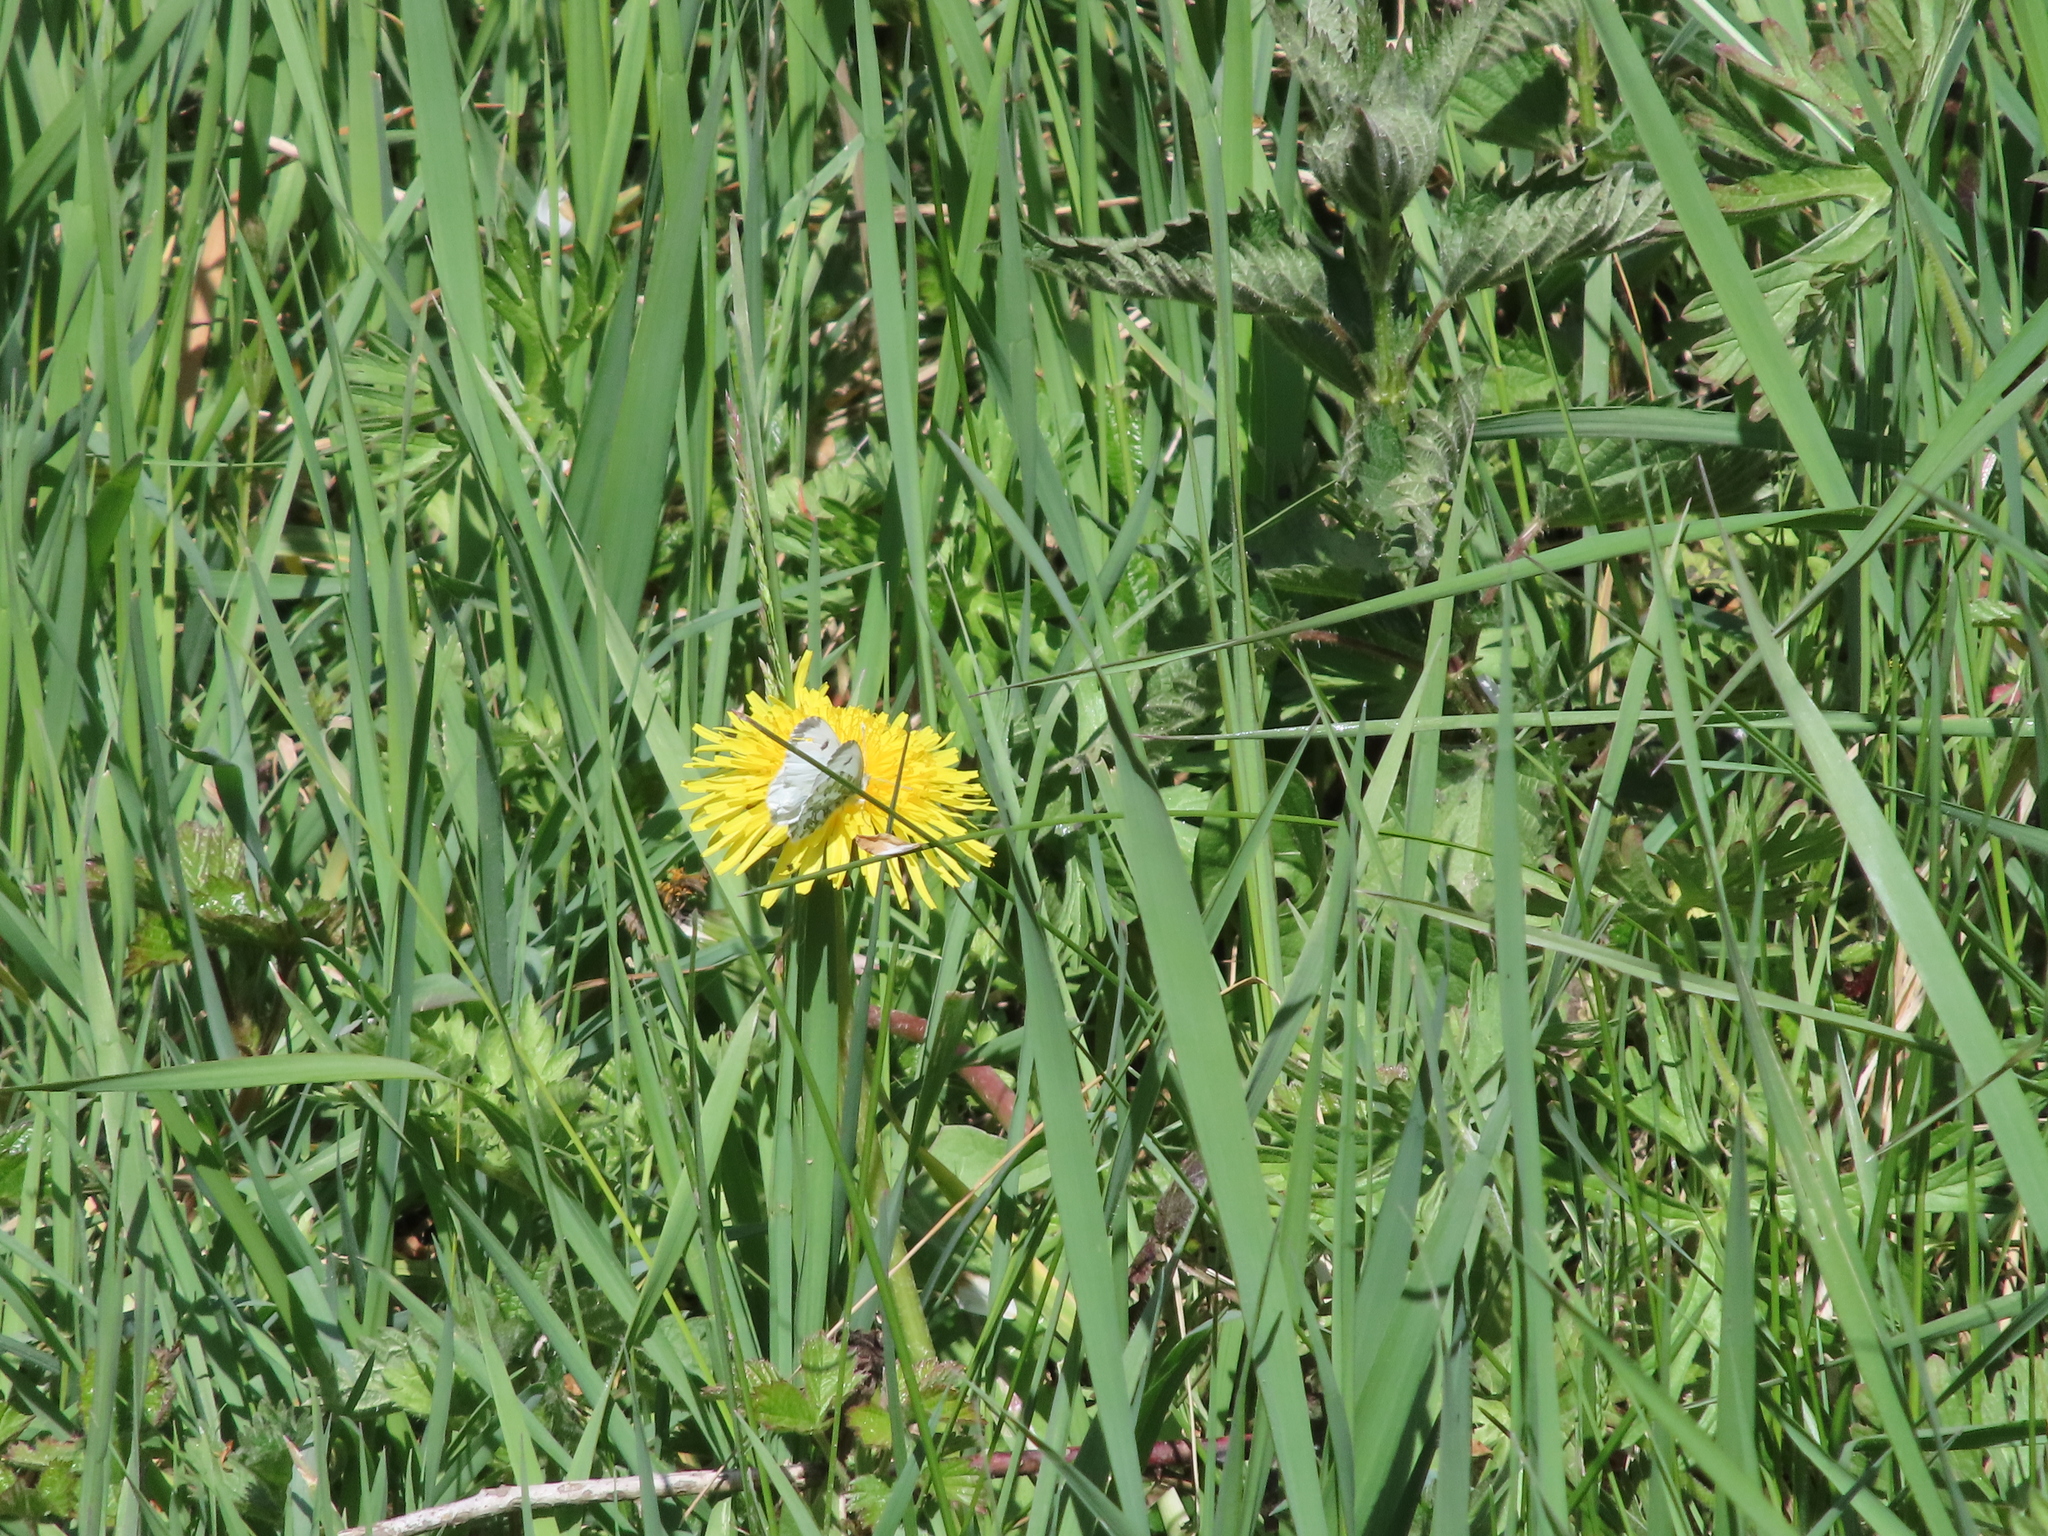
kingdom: Animalia
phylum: Arthropoda
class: Insecta
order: Lepidoptera
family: Pieridae
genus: Anthocharis
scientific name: Anthocharis cardamines
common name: Orange-tip
